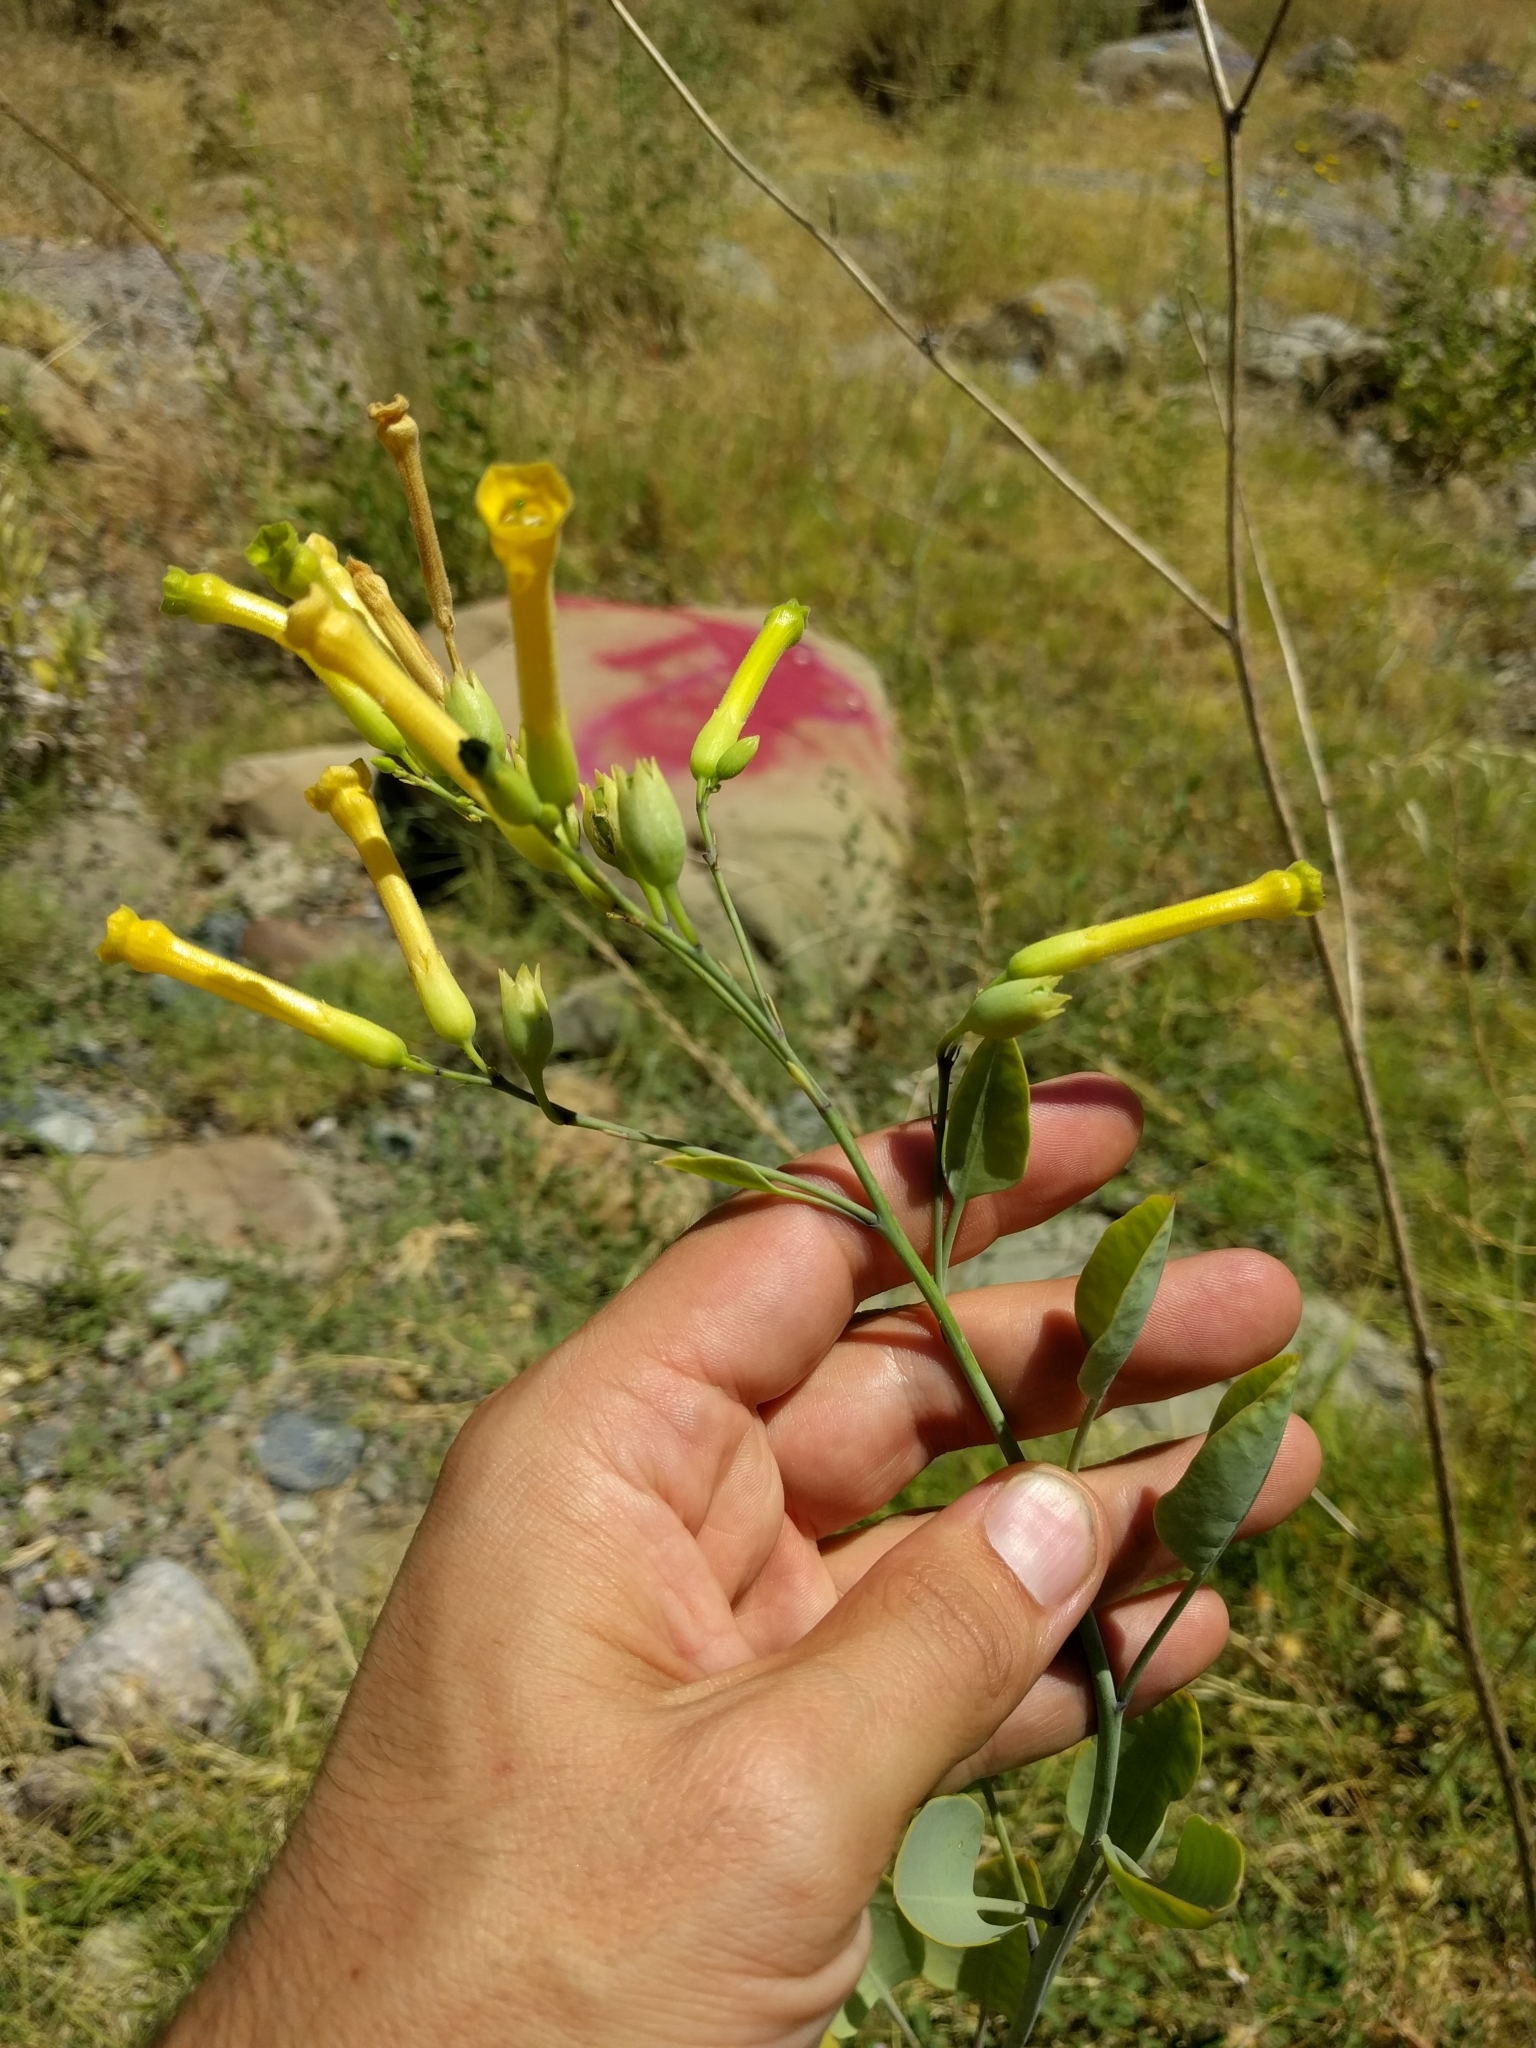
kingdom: Plantae
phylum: Tracheophyta
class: Magnoliopsida
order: Solanales
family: Solanaceae
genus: Nicotiana
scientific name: Nicotiana glauca
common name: Tree tobacco
